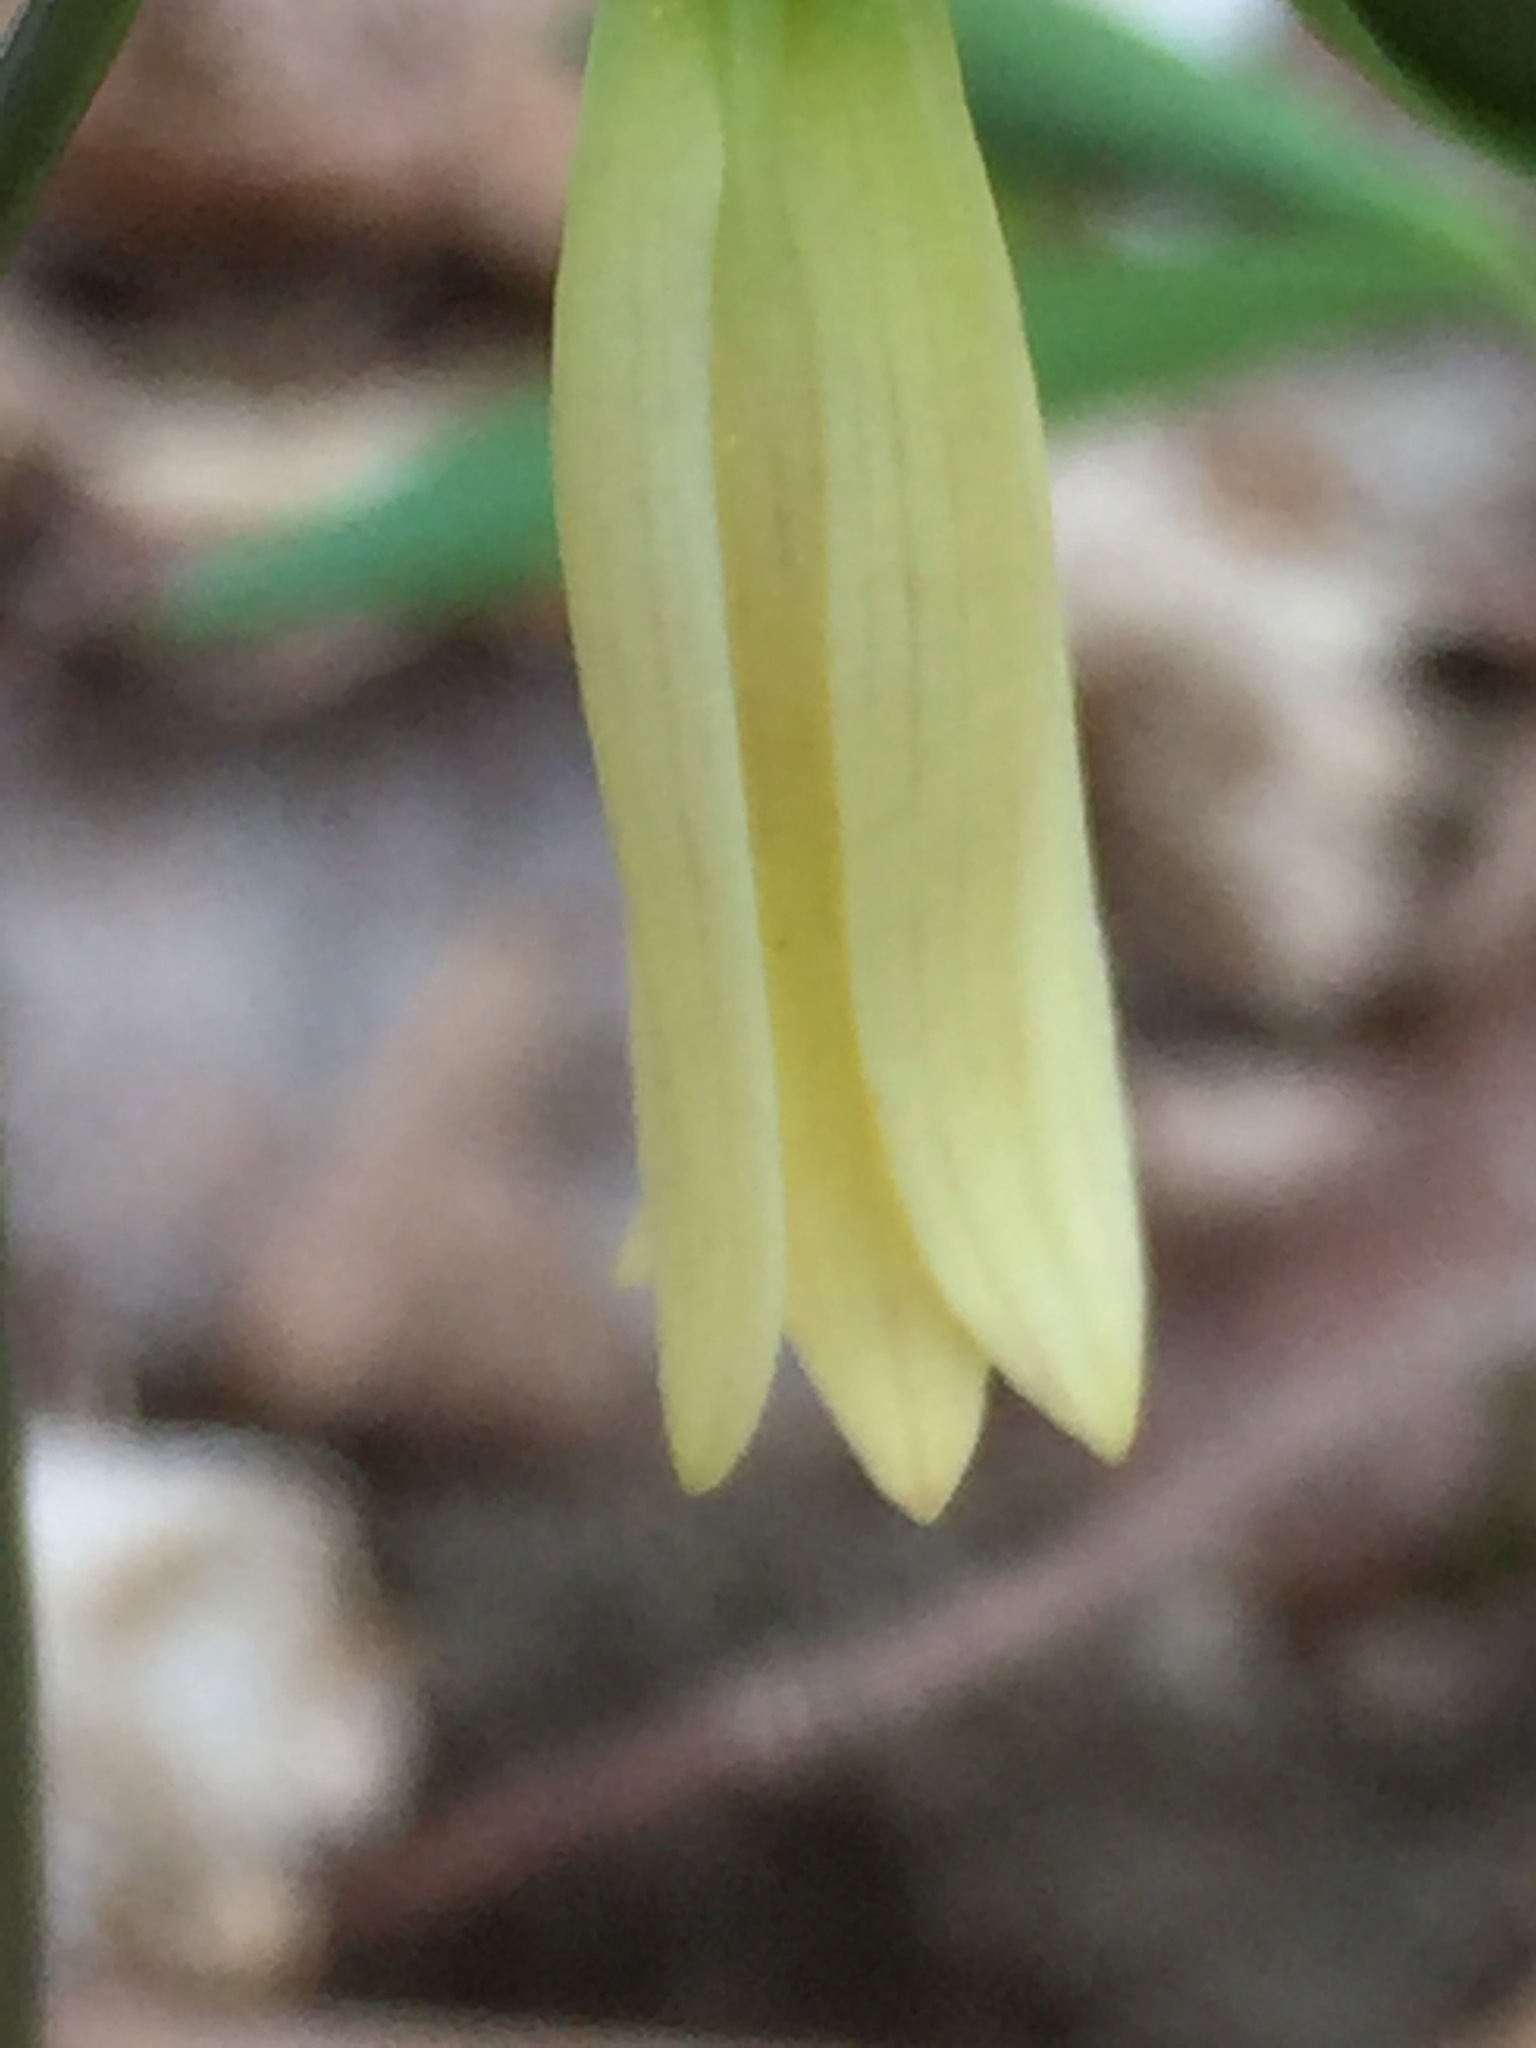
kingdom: Plantae
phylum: Tracheophyta
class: Liliopsida
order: Liliales
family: Colchicaceae
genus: Uvularia
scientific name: Uvularia sessilifolia
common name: Straw-lily
